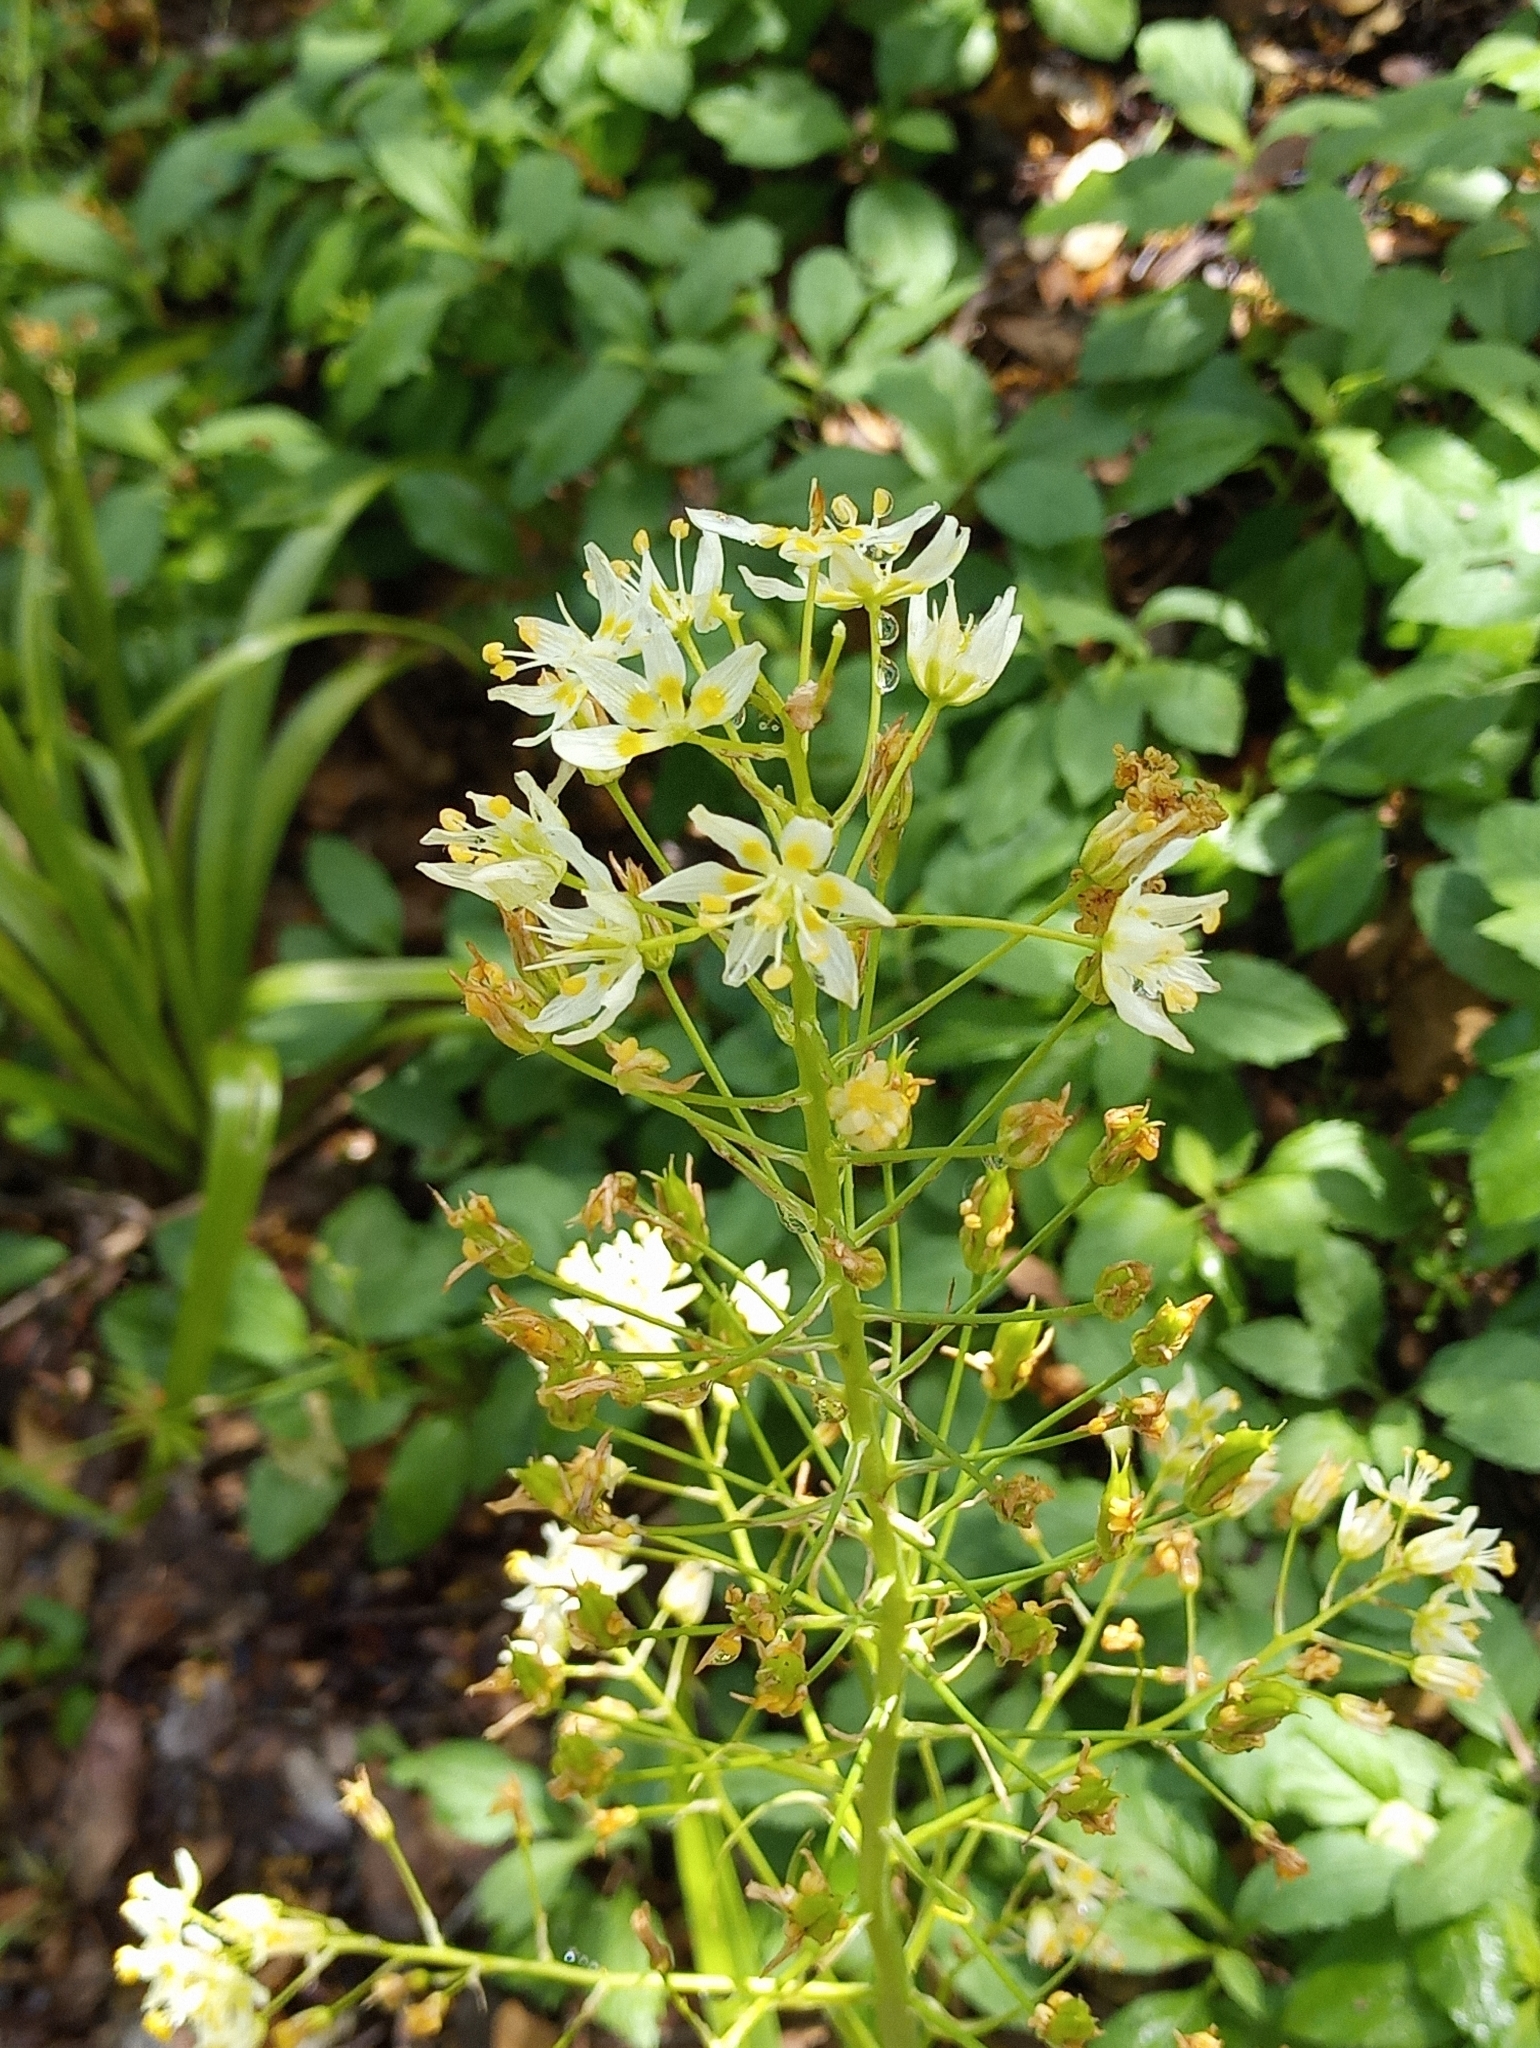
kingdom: Plantae
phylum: Tracheophyta
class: Liliopsida
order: Liliales
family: Melanthiaceae
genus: Toxicoscordion
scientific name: Toxicoscordion fremontii
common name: Fremont's death camas
